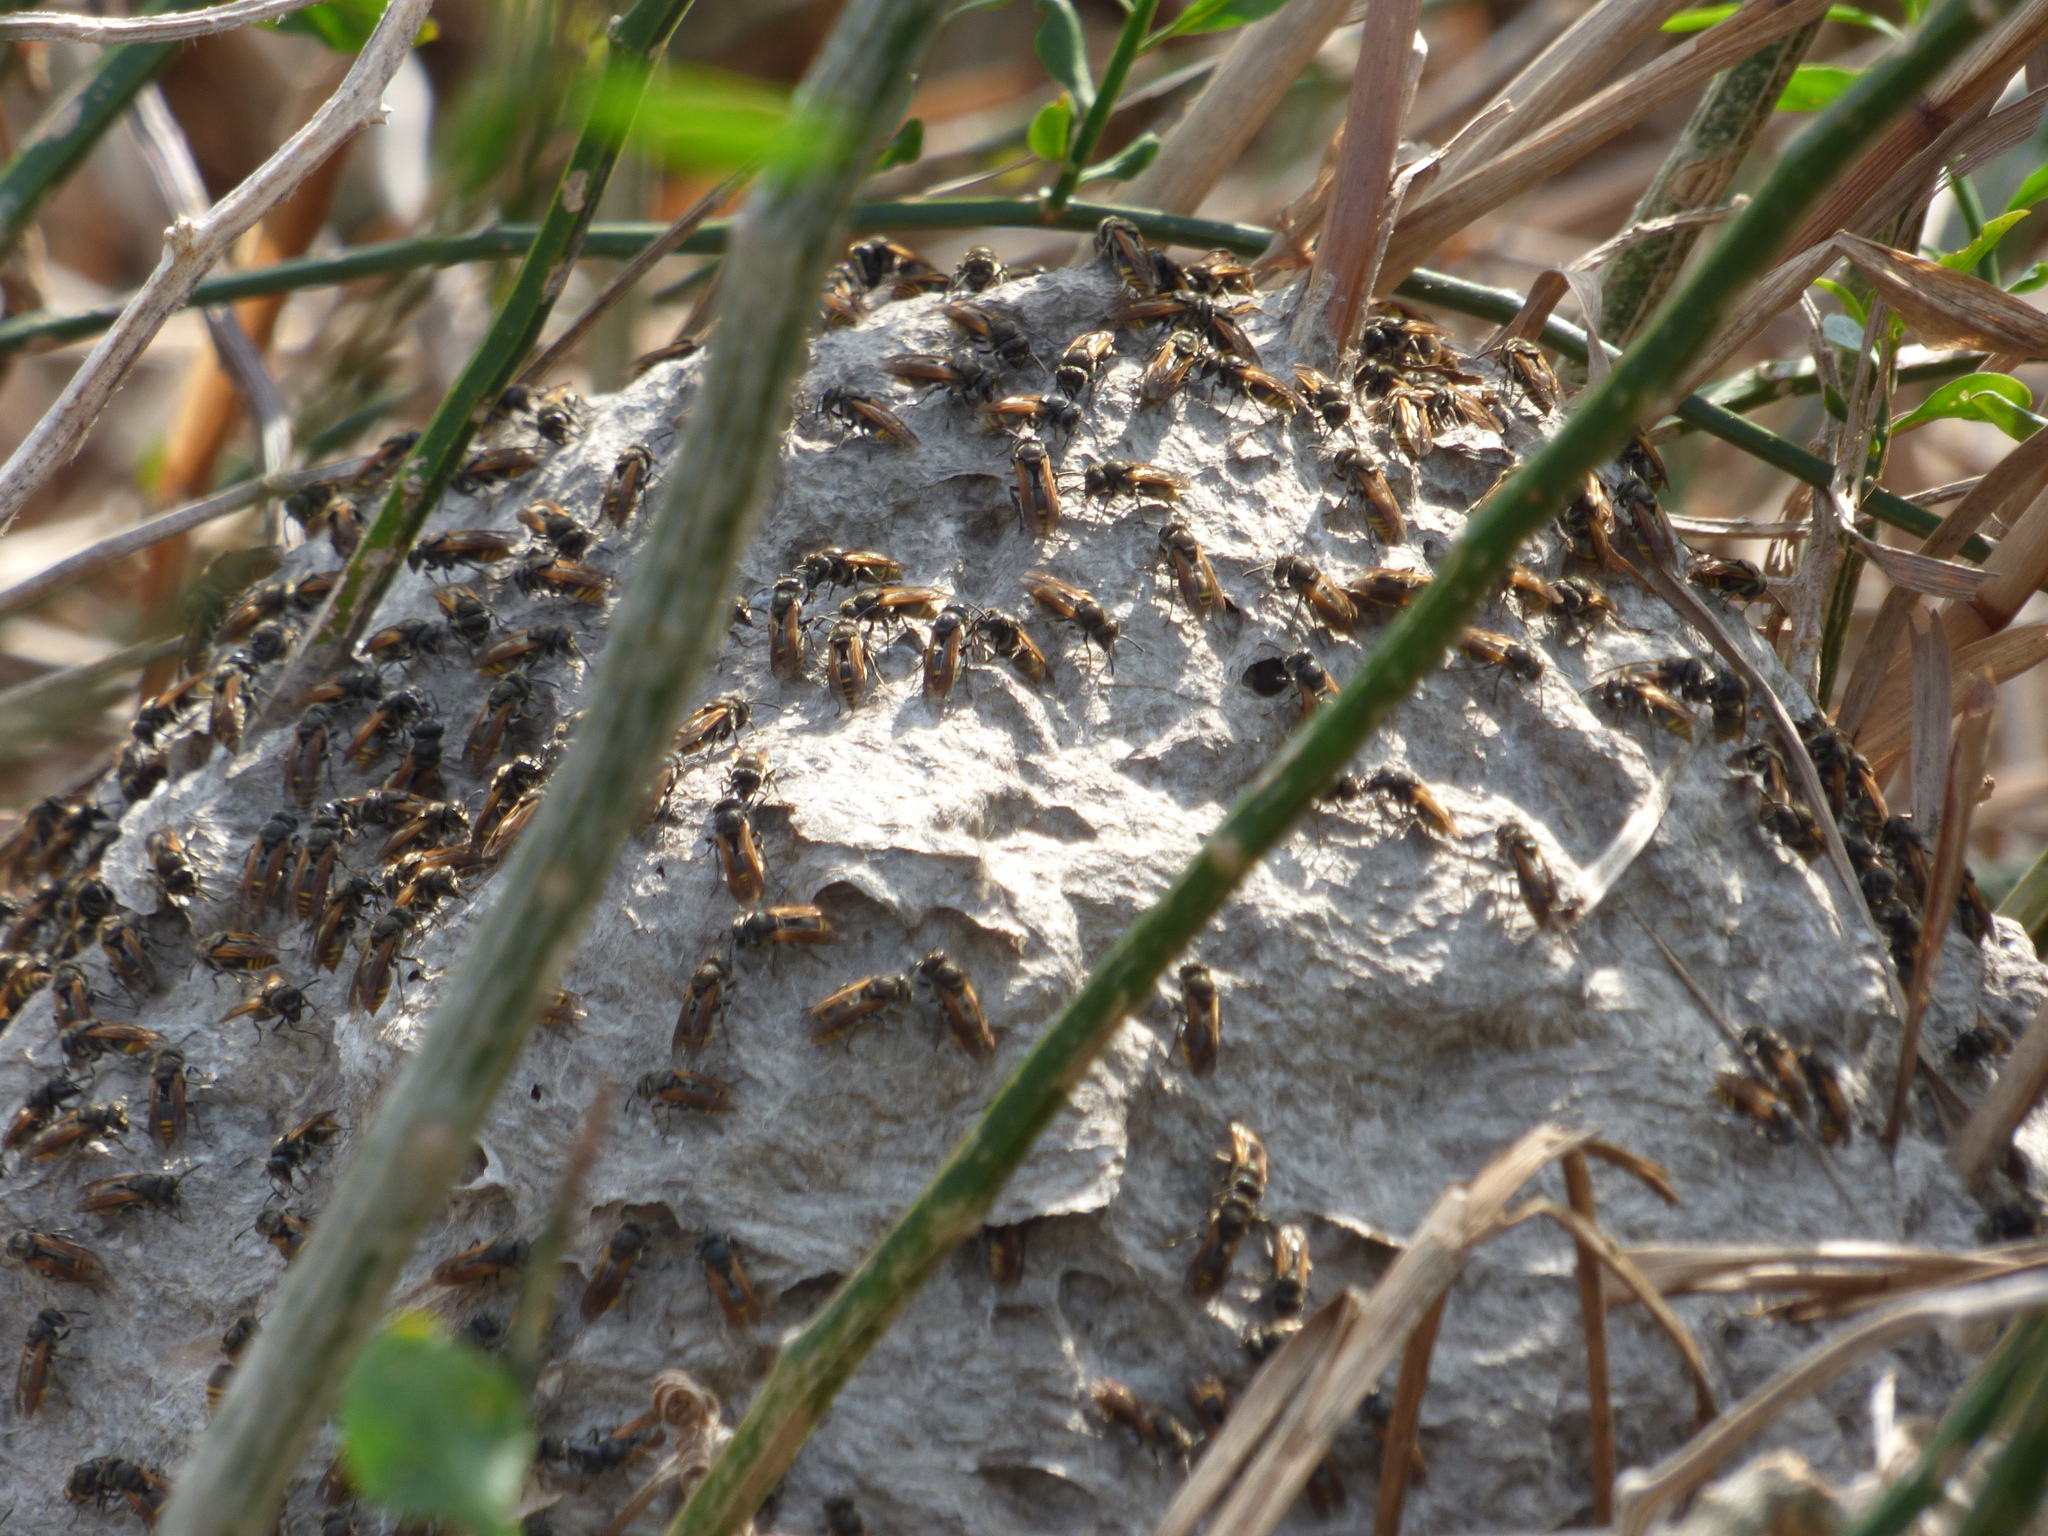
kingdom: Animalia
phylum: Arthropoda
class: Insecta
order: Hymenoptera
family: Vespidae
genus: Brachygastra
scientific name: Brachygastra lecheguana
